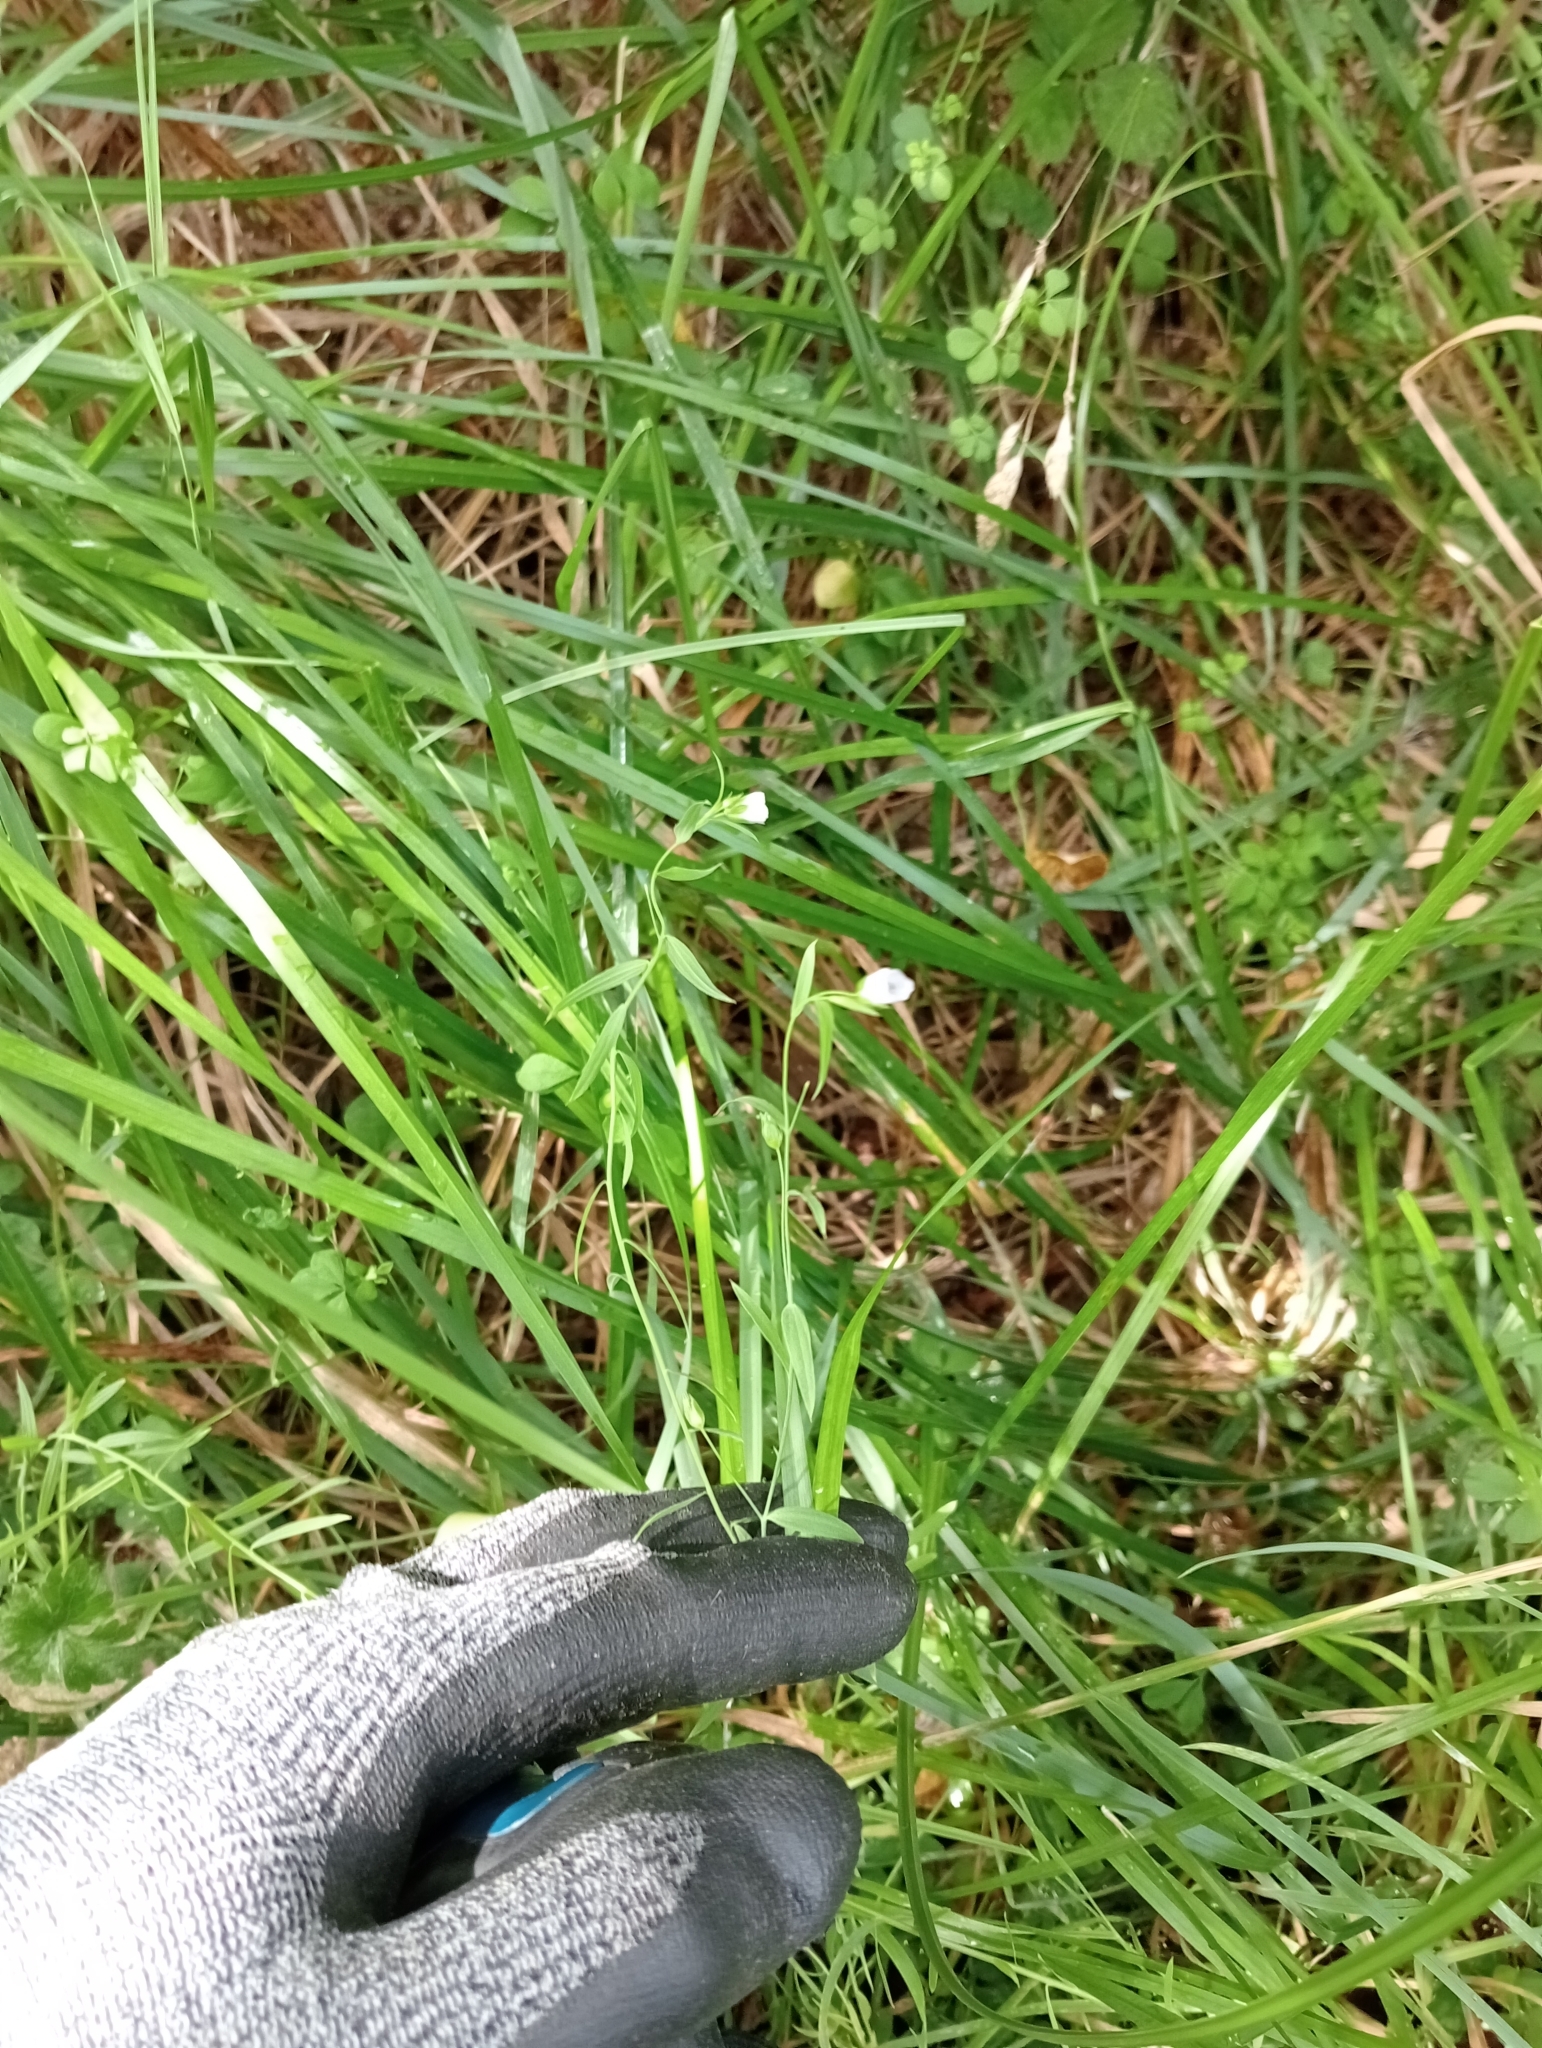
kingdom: Plantae
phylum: Tracheophyta
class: Magnoliopsida
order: Malpighiales
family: Linaceae
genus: Linum
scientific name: Linum bienne
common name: Pale flax
